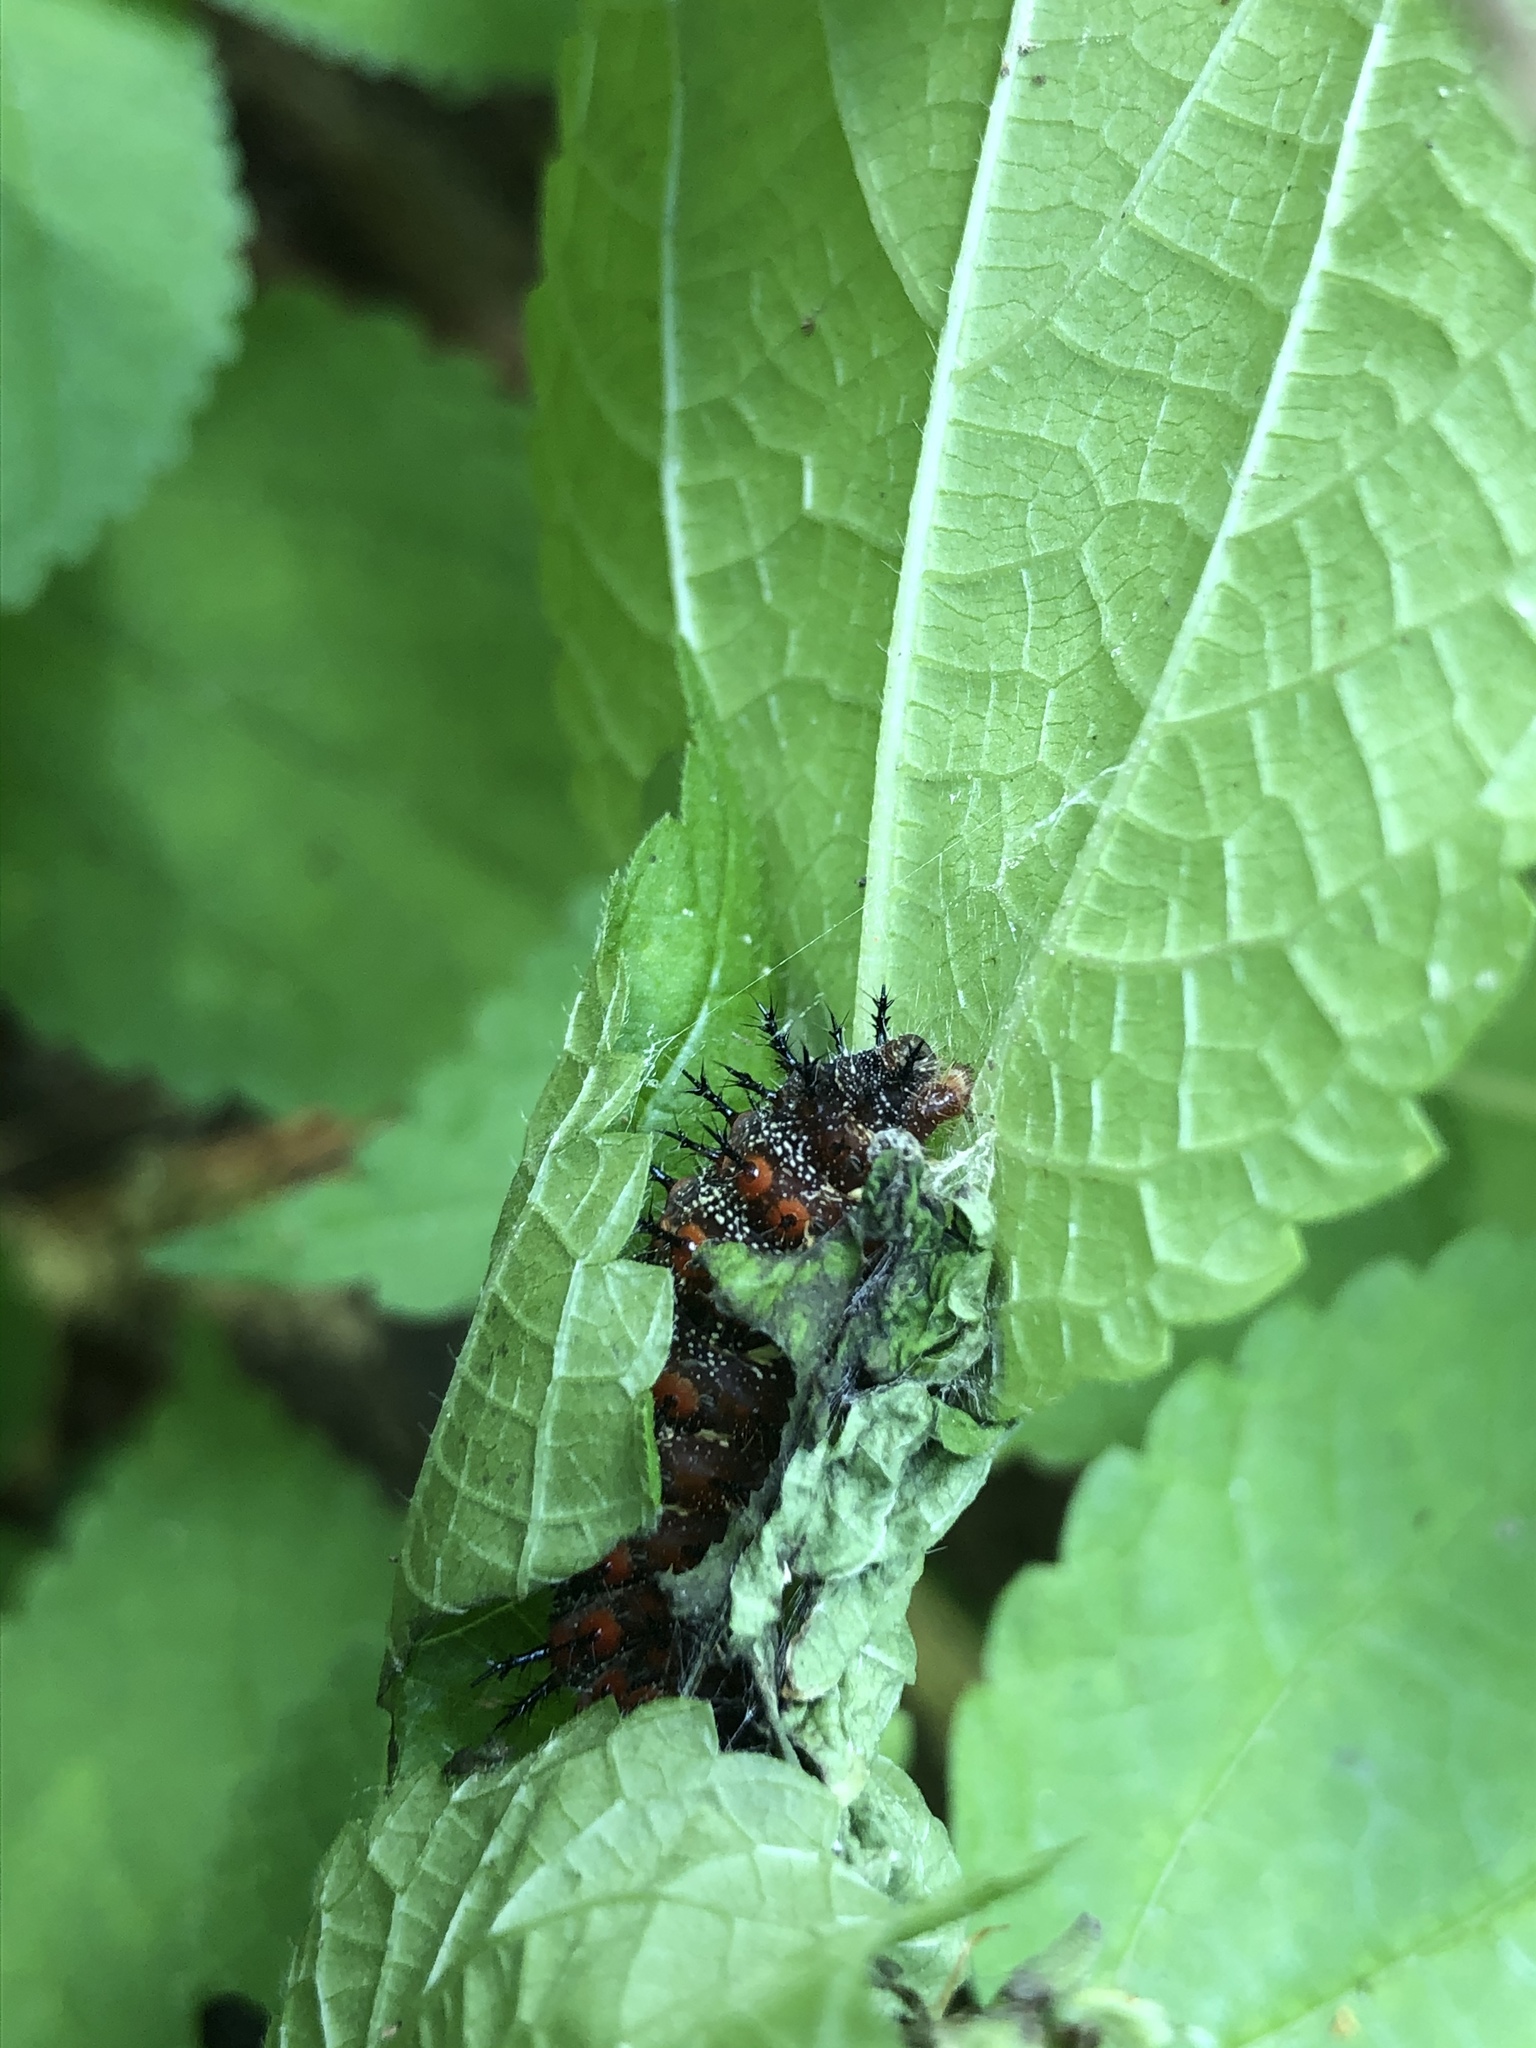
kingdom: Animalia
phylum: Arthropoda
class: Insecta
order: Lepidoptera
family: Nymphalidae
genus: Polygonia
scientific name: Polygonia interrogationis
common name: Question mark
